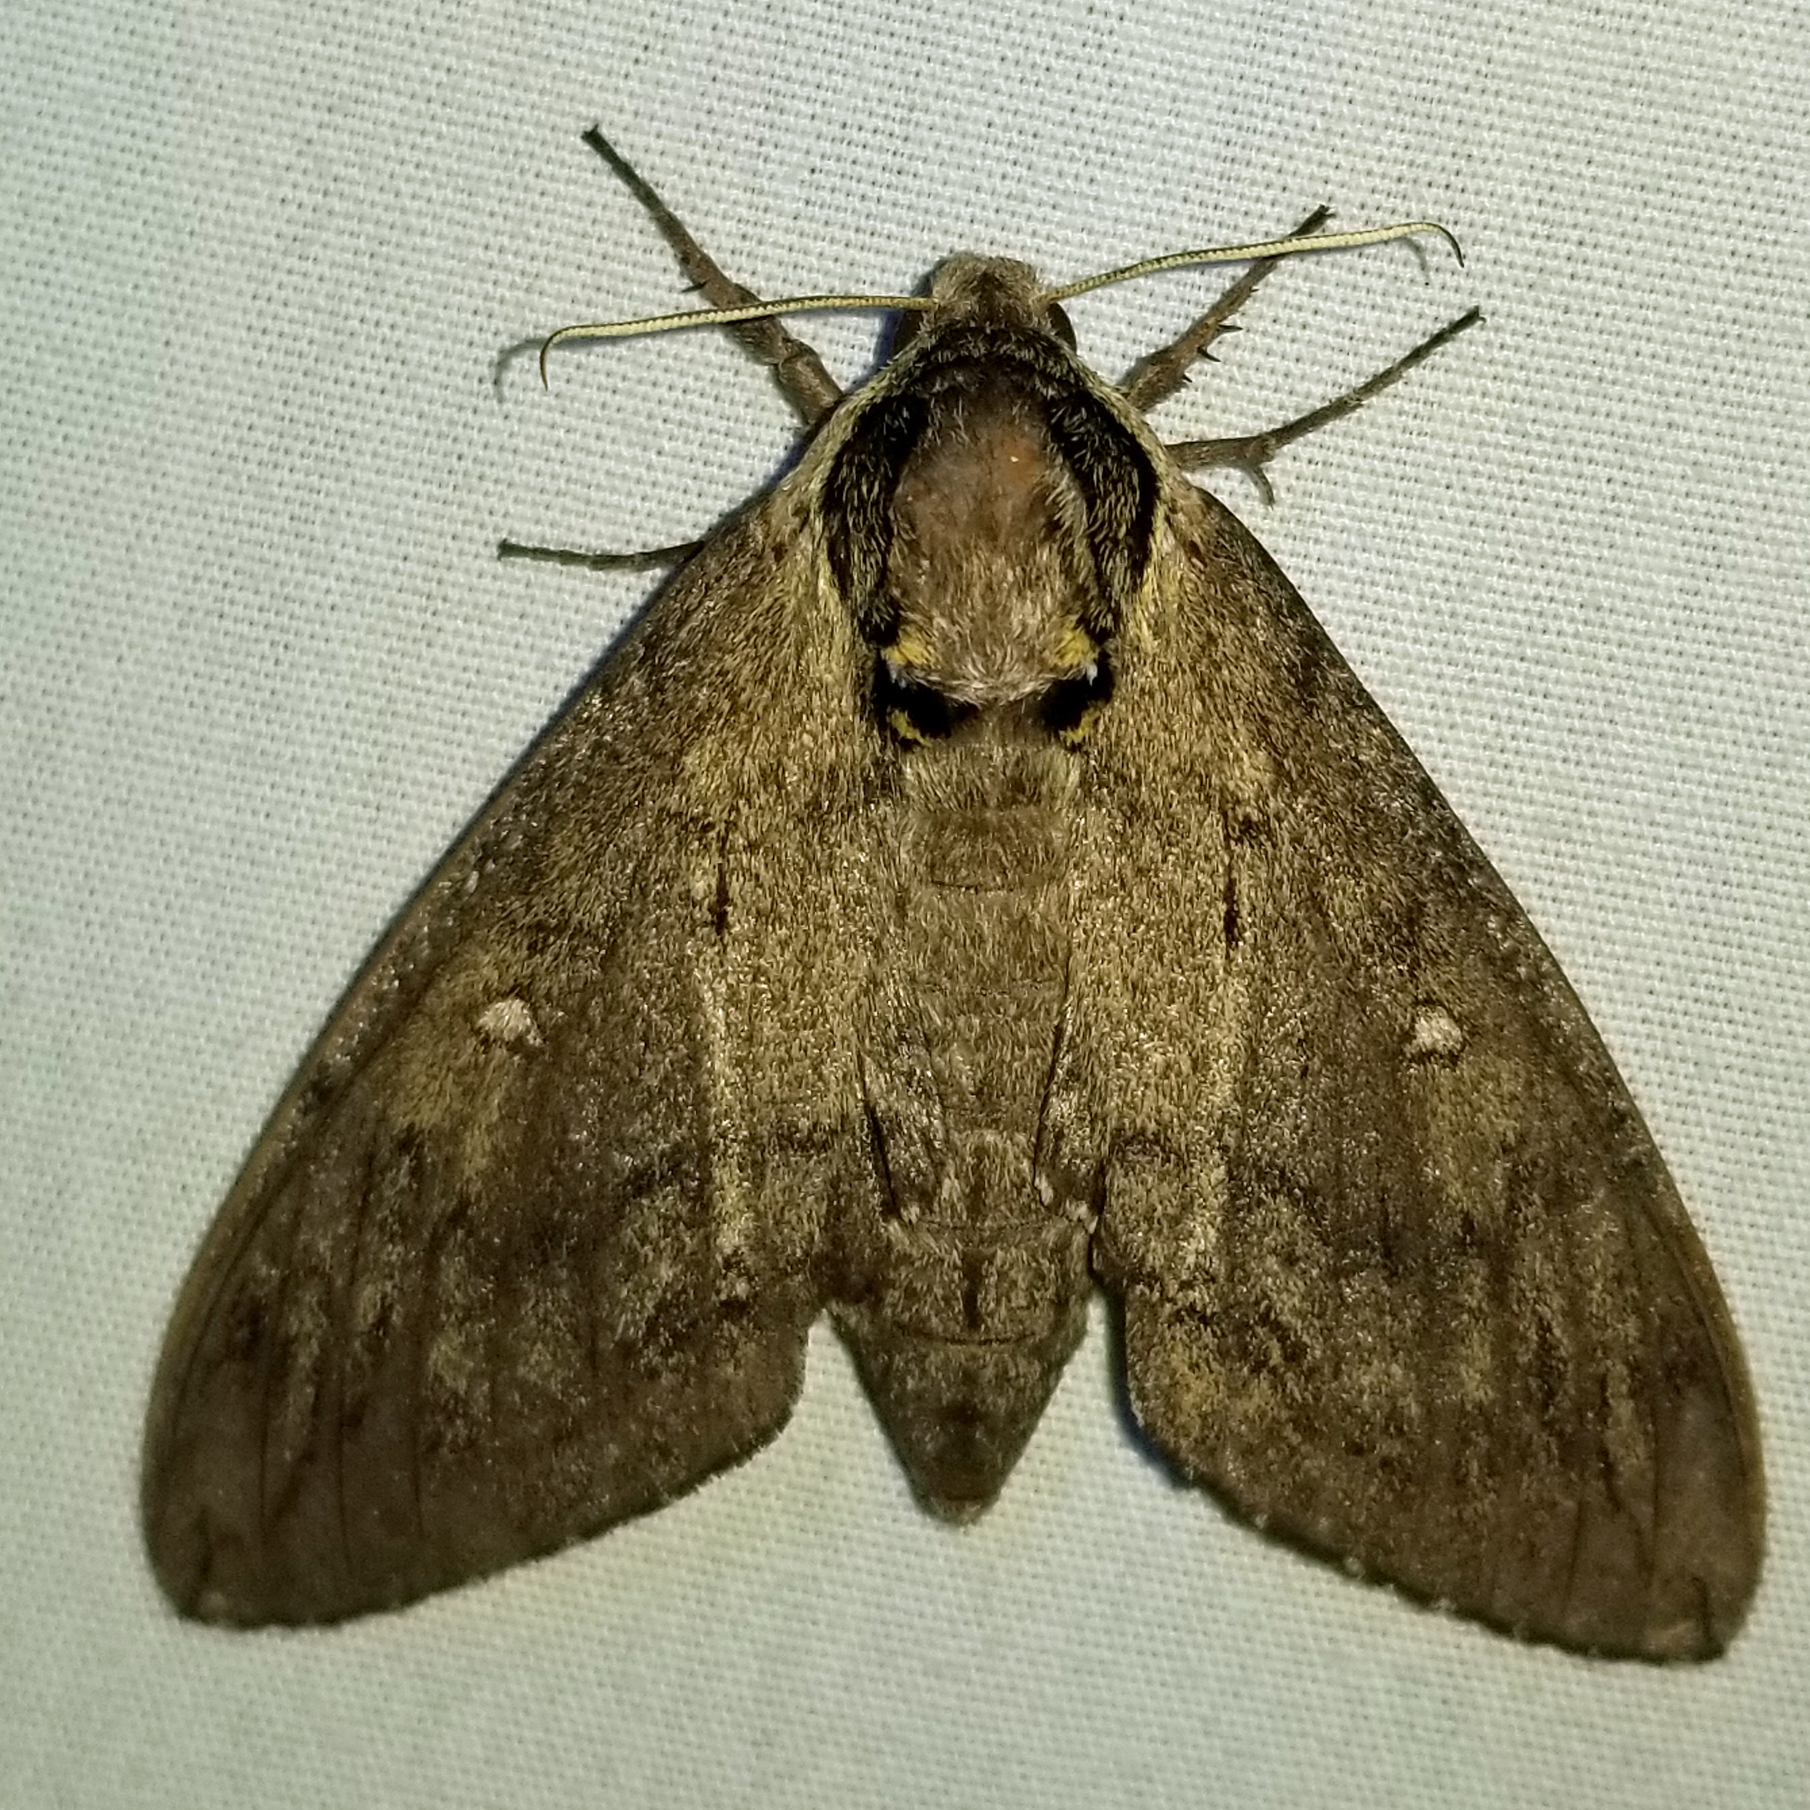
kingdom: Animalia
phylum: Arthropoda
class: Insecta
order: Lepidoptera
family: Sphingidae
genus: Ceratomia
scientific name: Ceratomia catalpae
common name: Catalpa hornworm
